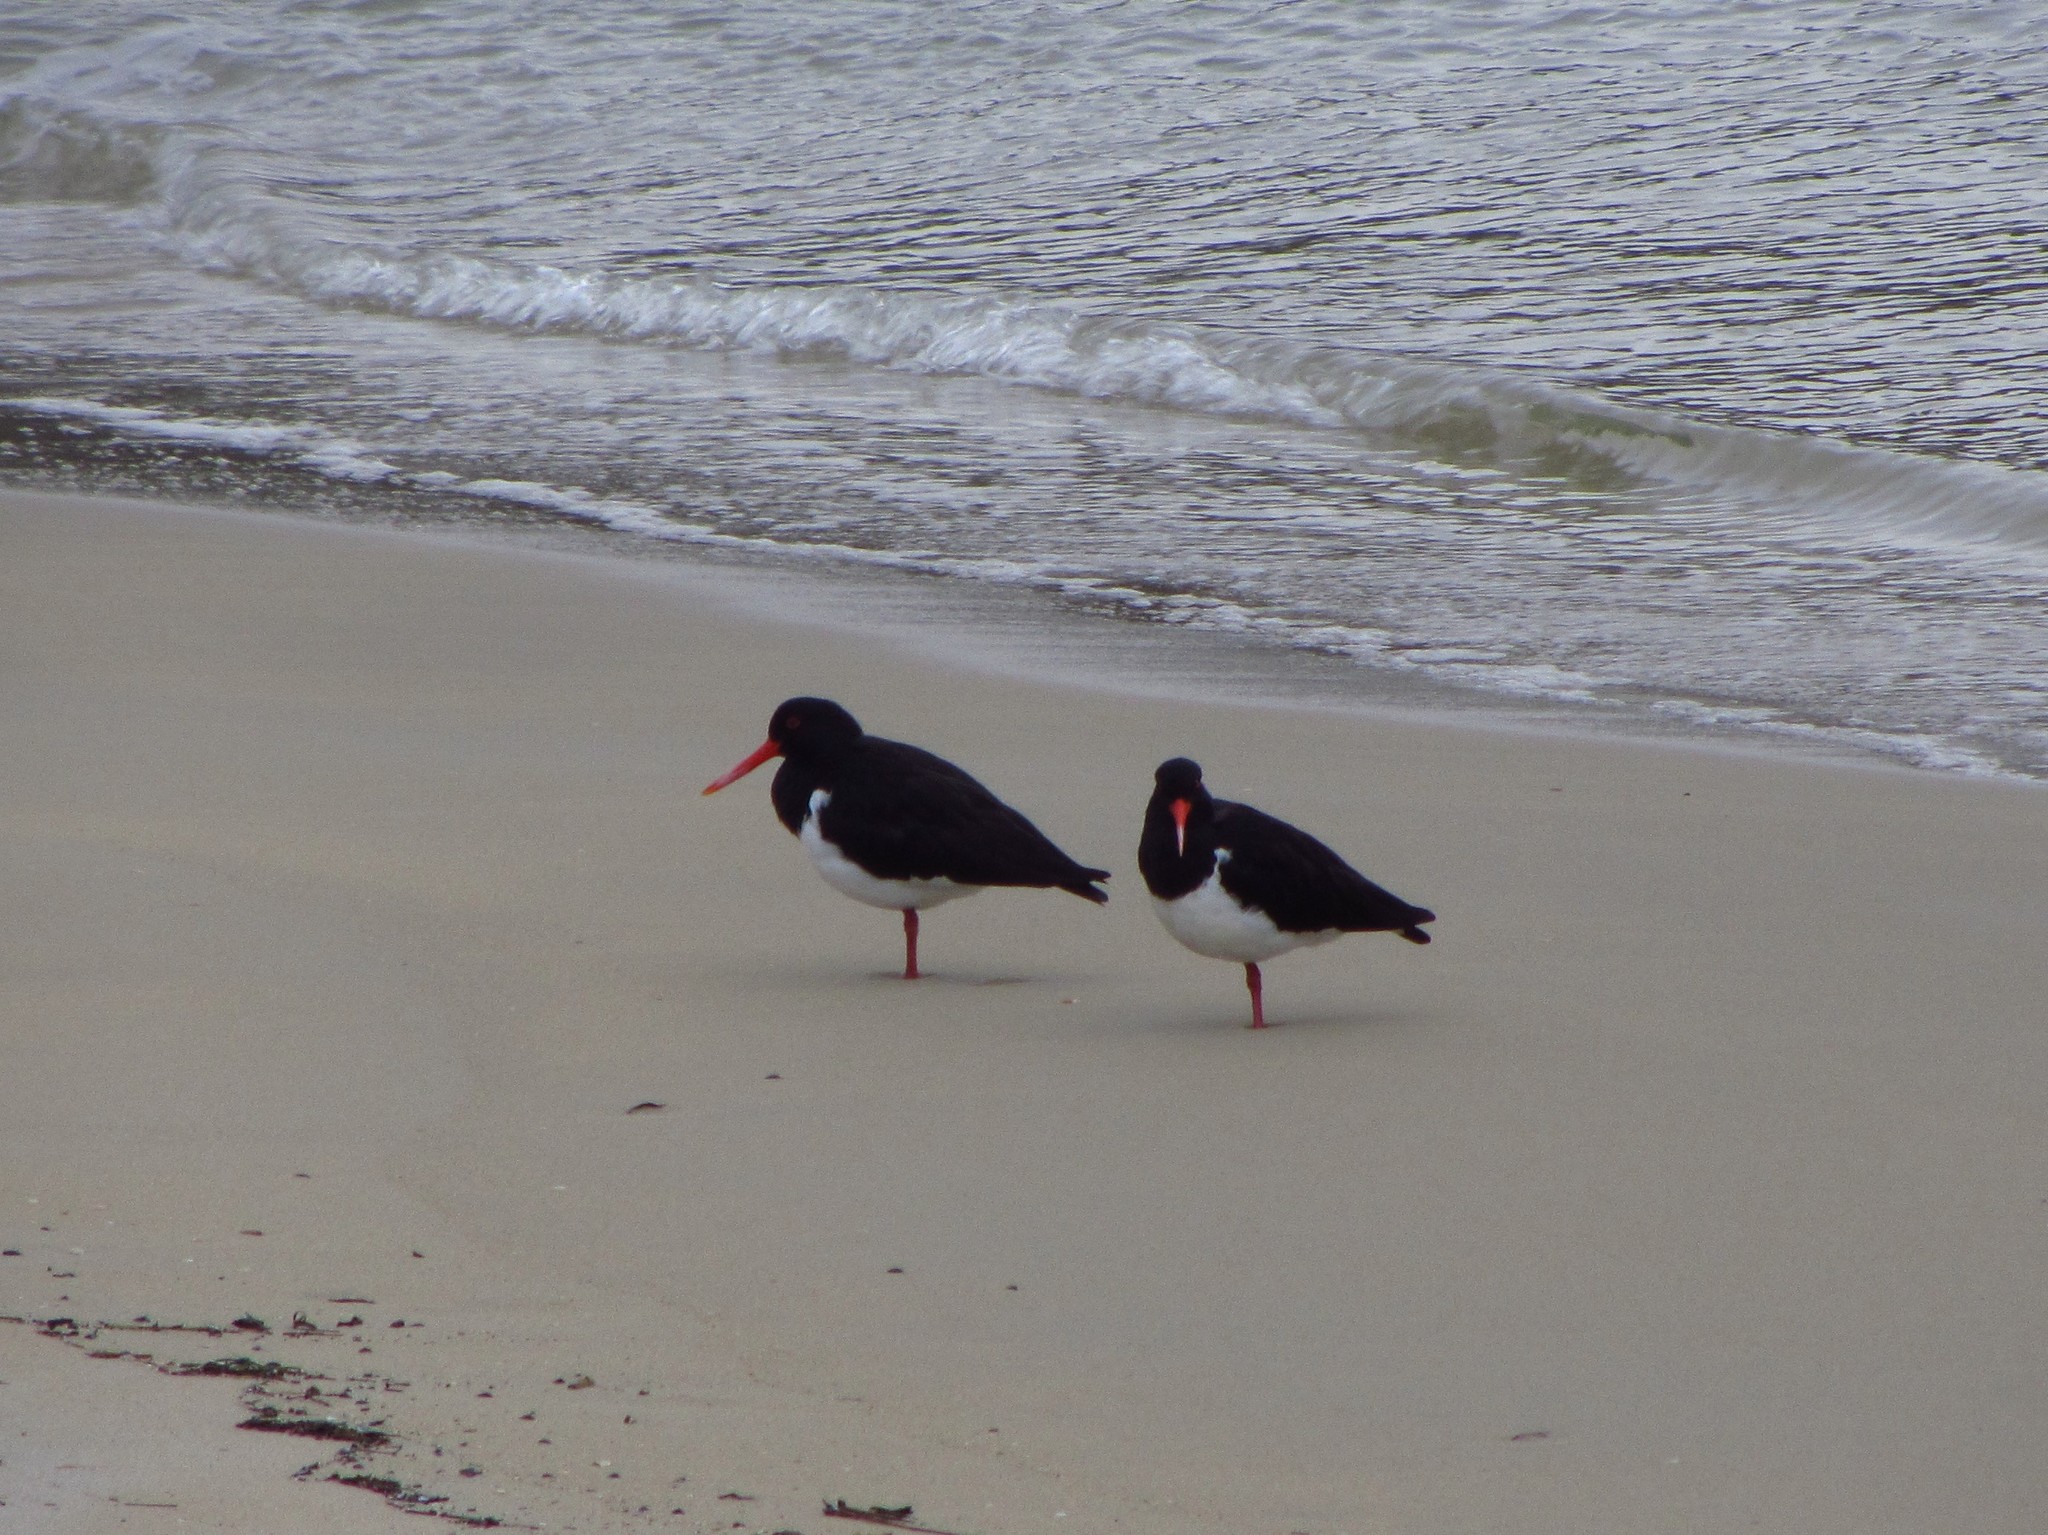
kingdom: Animalia
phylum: Chordata
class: Aves
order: Charadriiformes
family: Haematopodidae
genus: Haematopus
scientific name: Haematopus longirostris
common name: Pied oystercatcher
